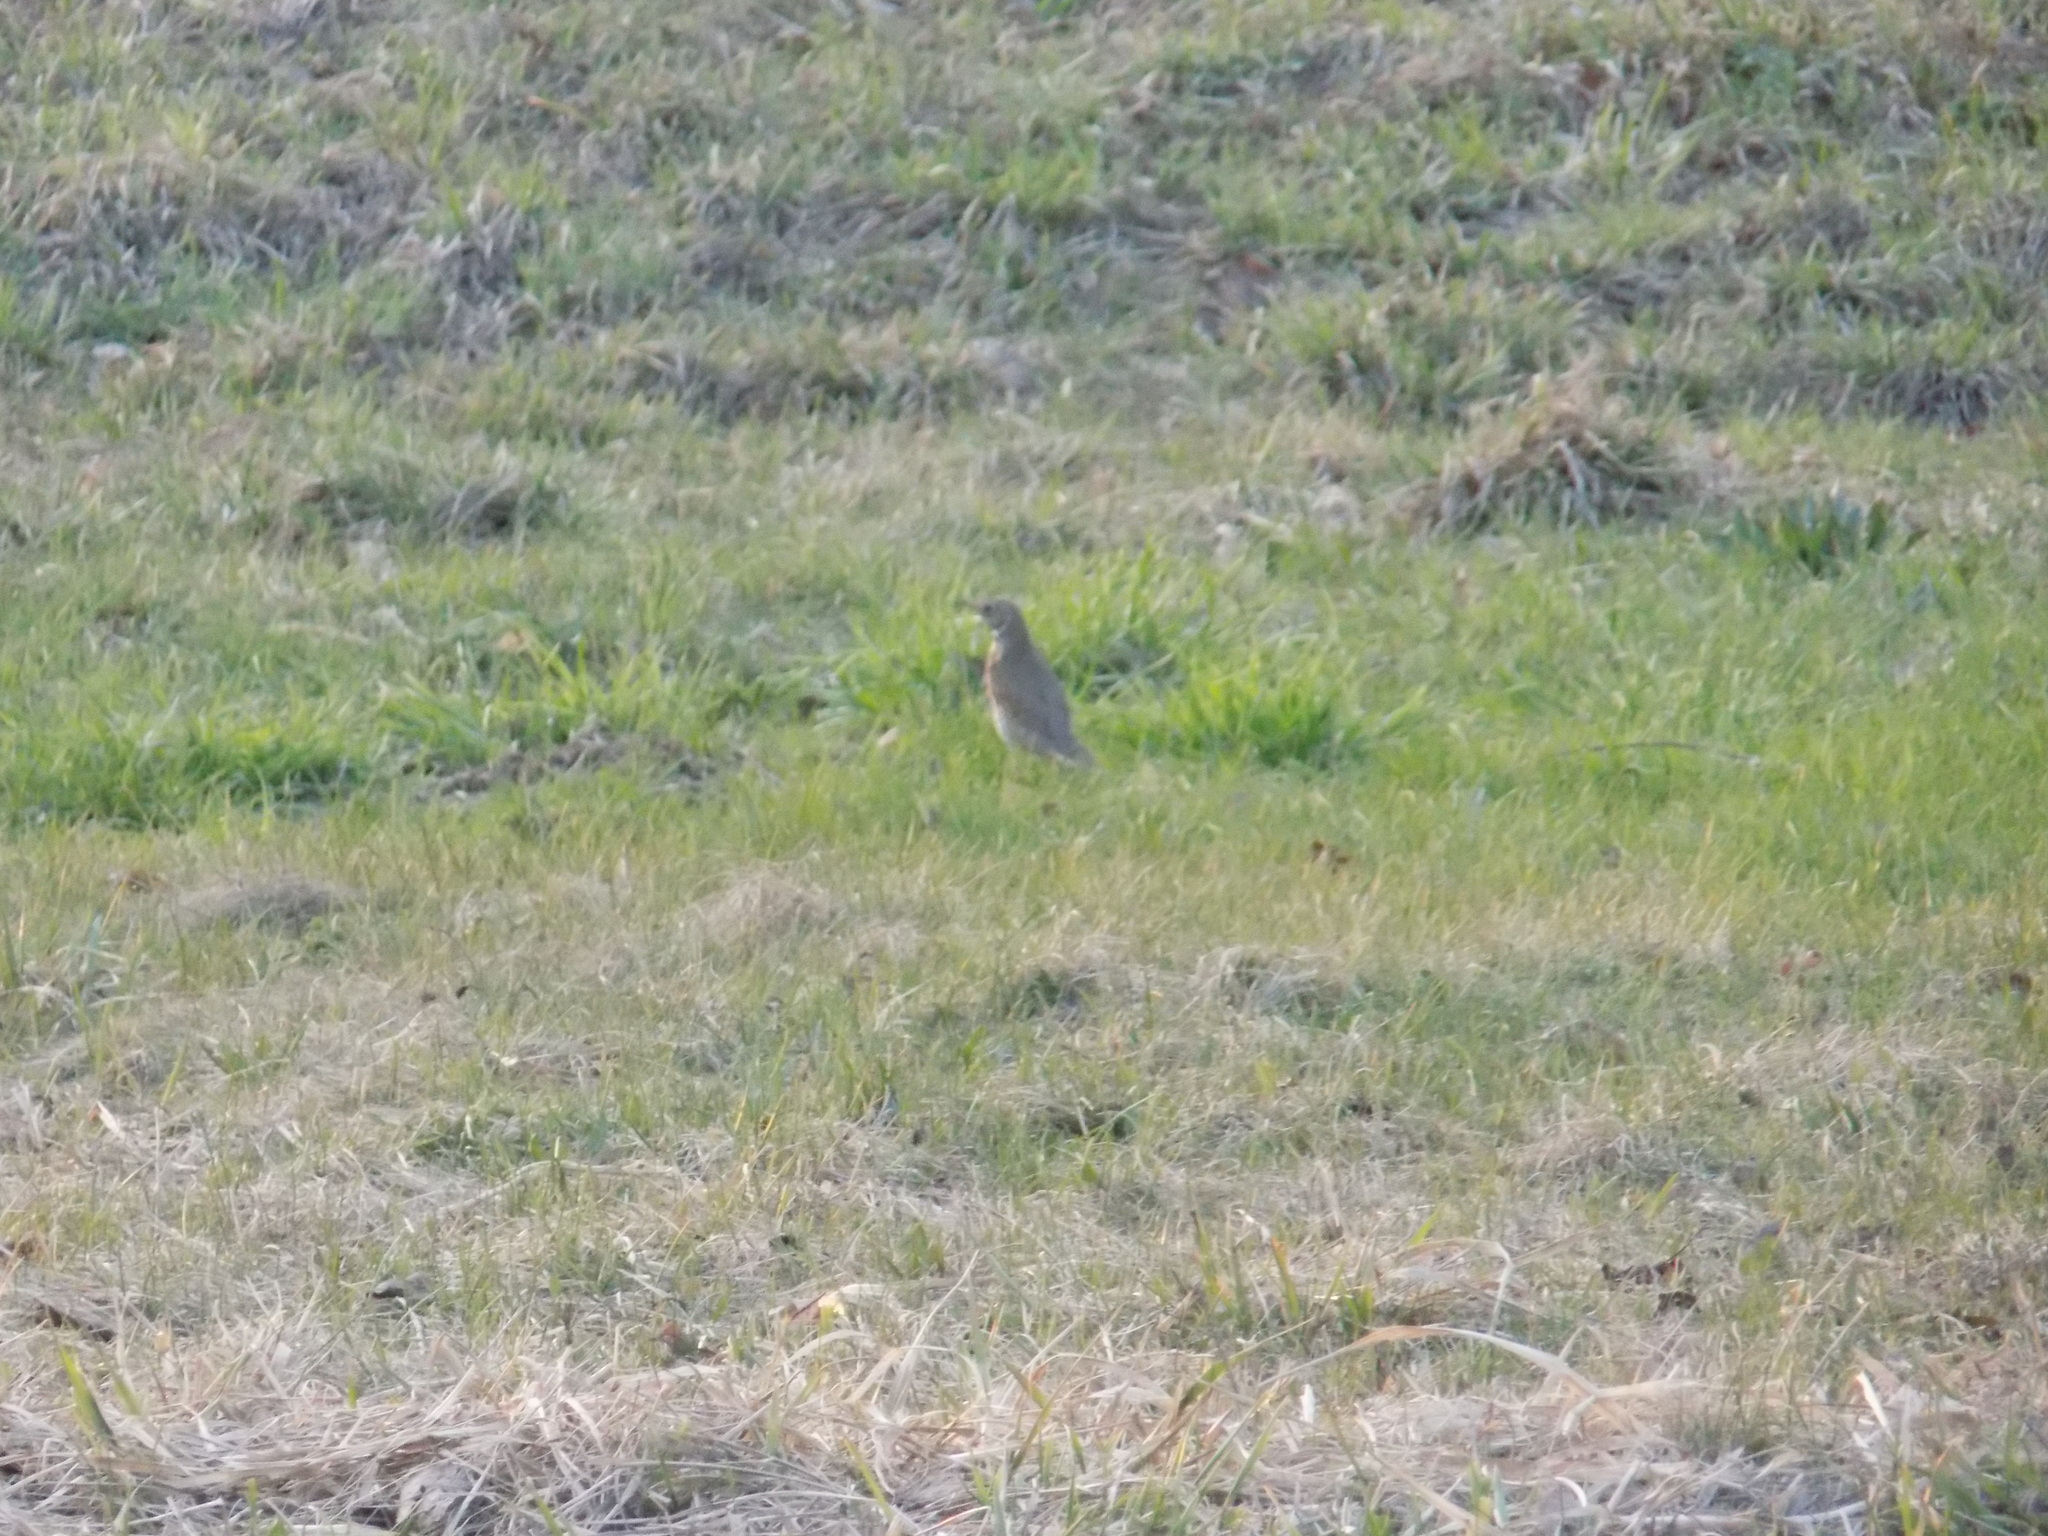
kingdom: Animalia
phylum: Chordata
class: Aves
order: Passeriformes
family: Turdidae
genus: Turdus
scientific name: Turdus philomelos
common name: Song thrush
